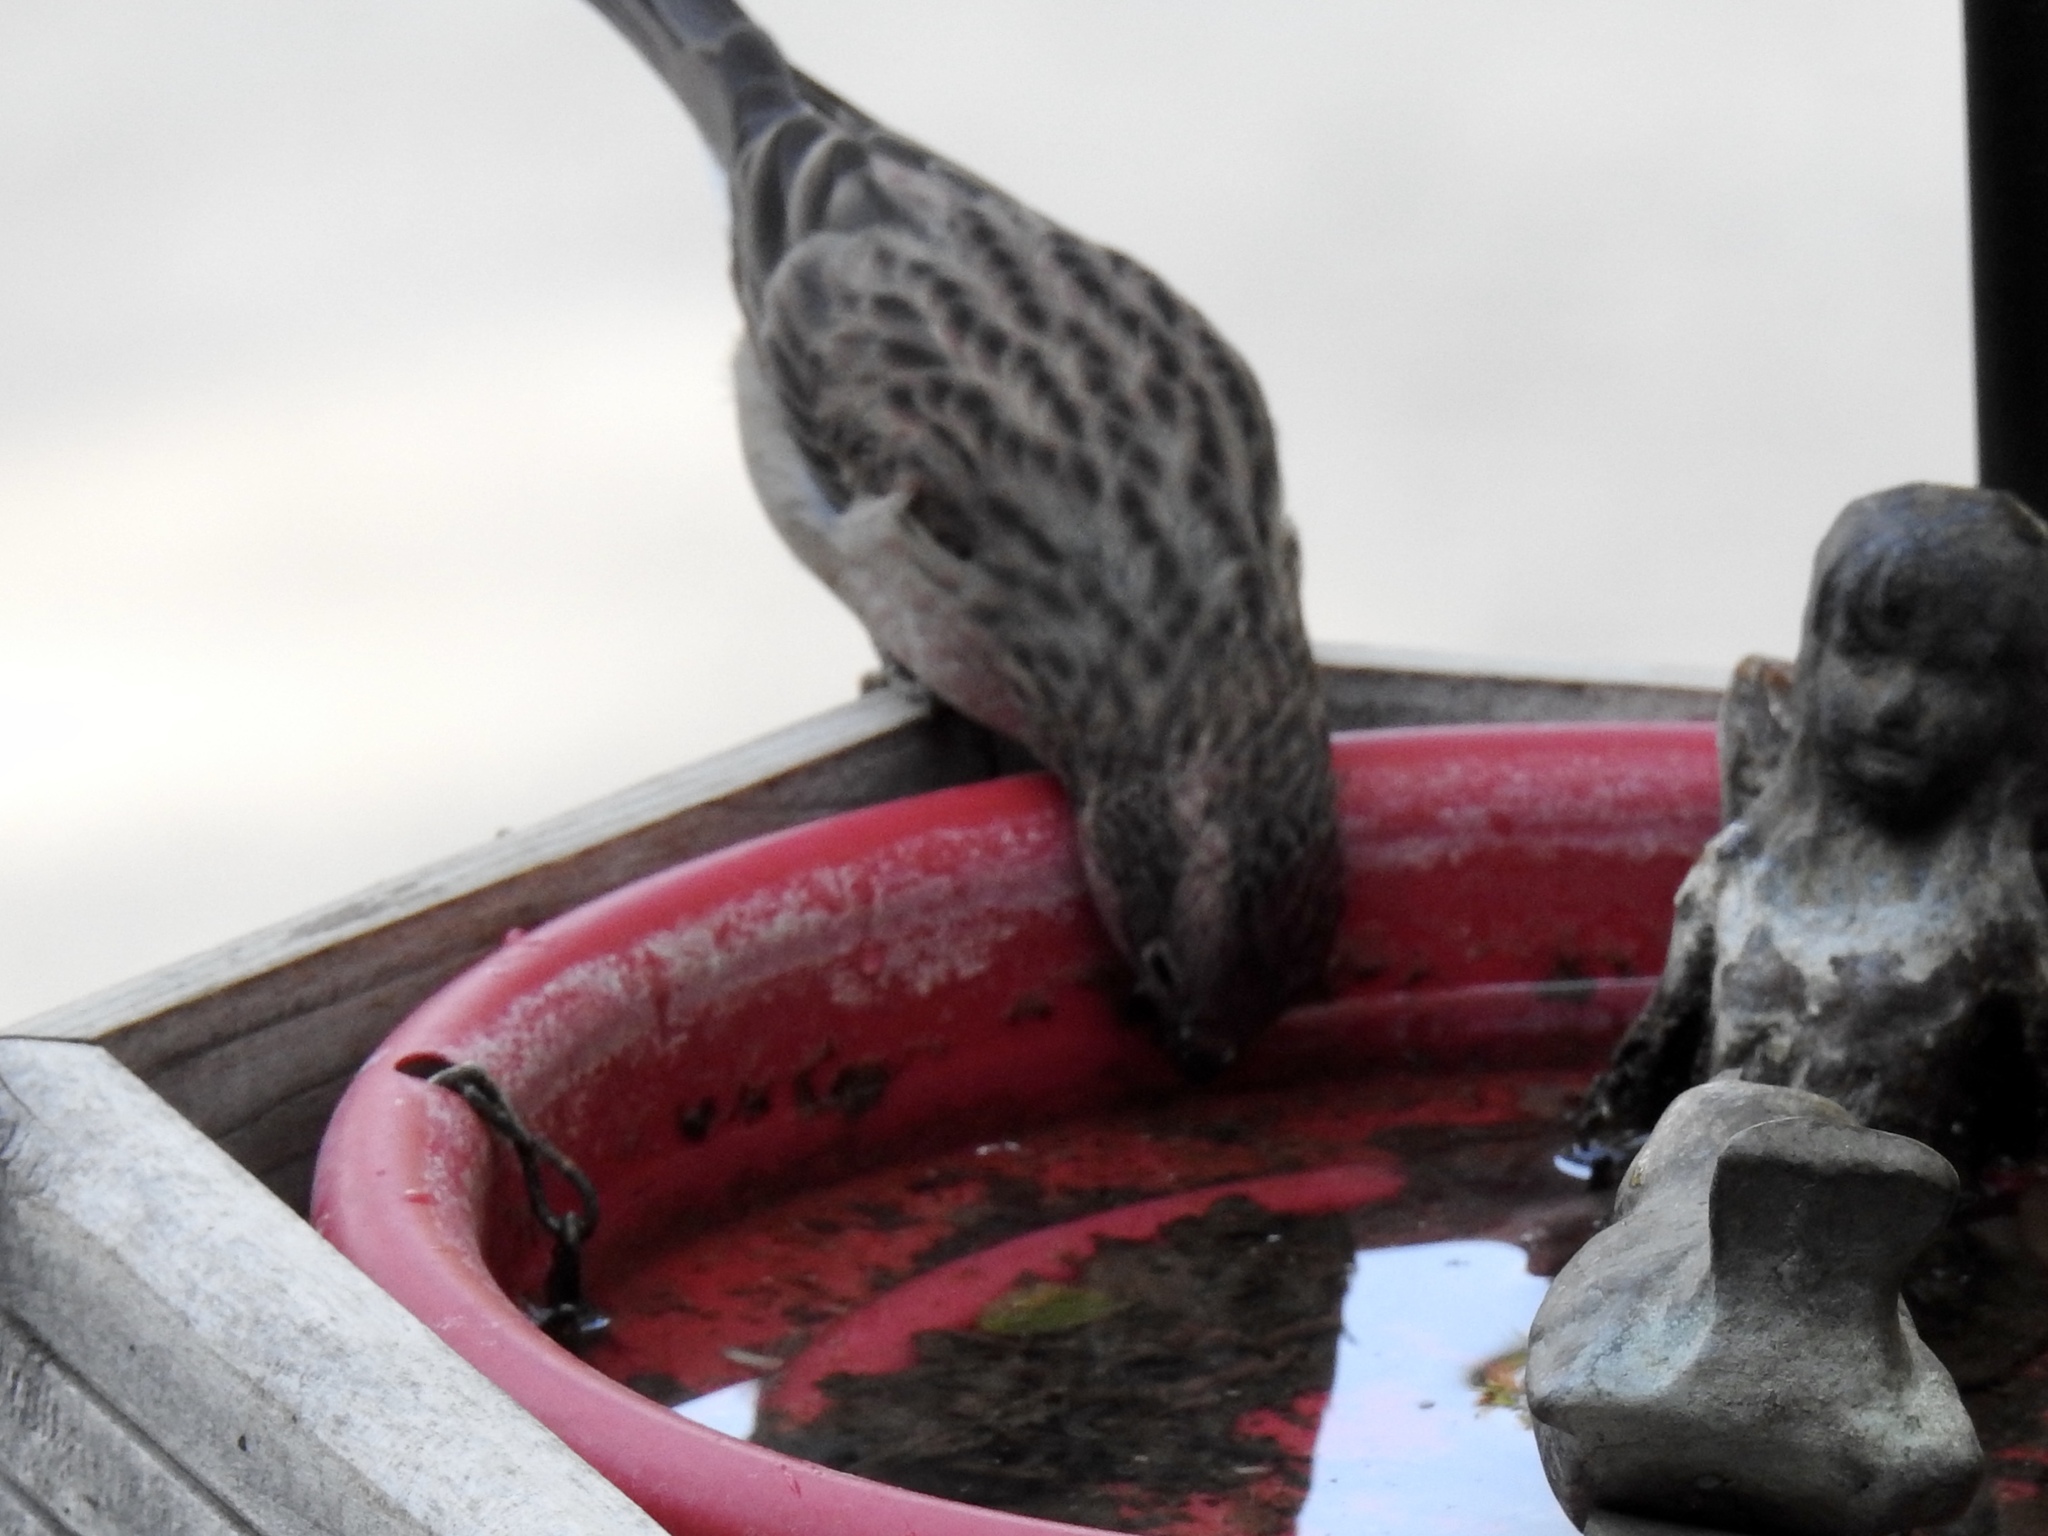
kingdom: Animalia
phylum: Chordata
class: Aves
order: Passeriformes
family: Fringillidae
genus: Haemorhous
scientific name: Haemorhous cassinii
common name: Cassin's finch
